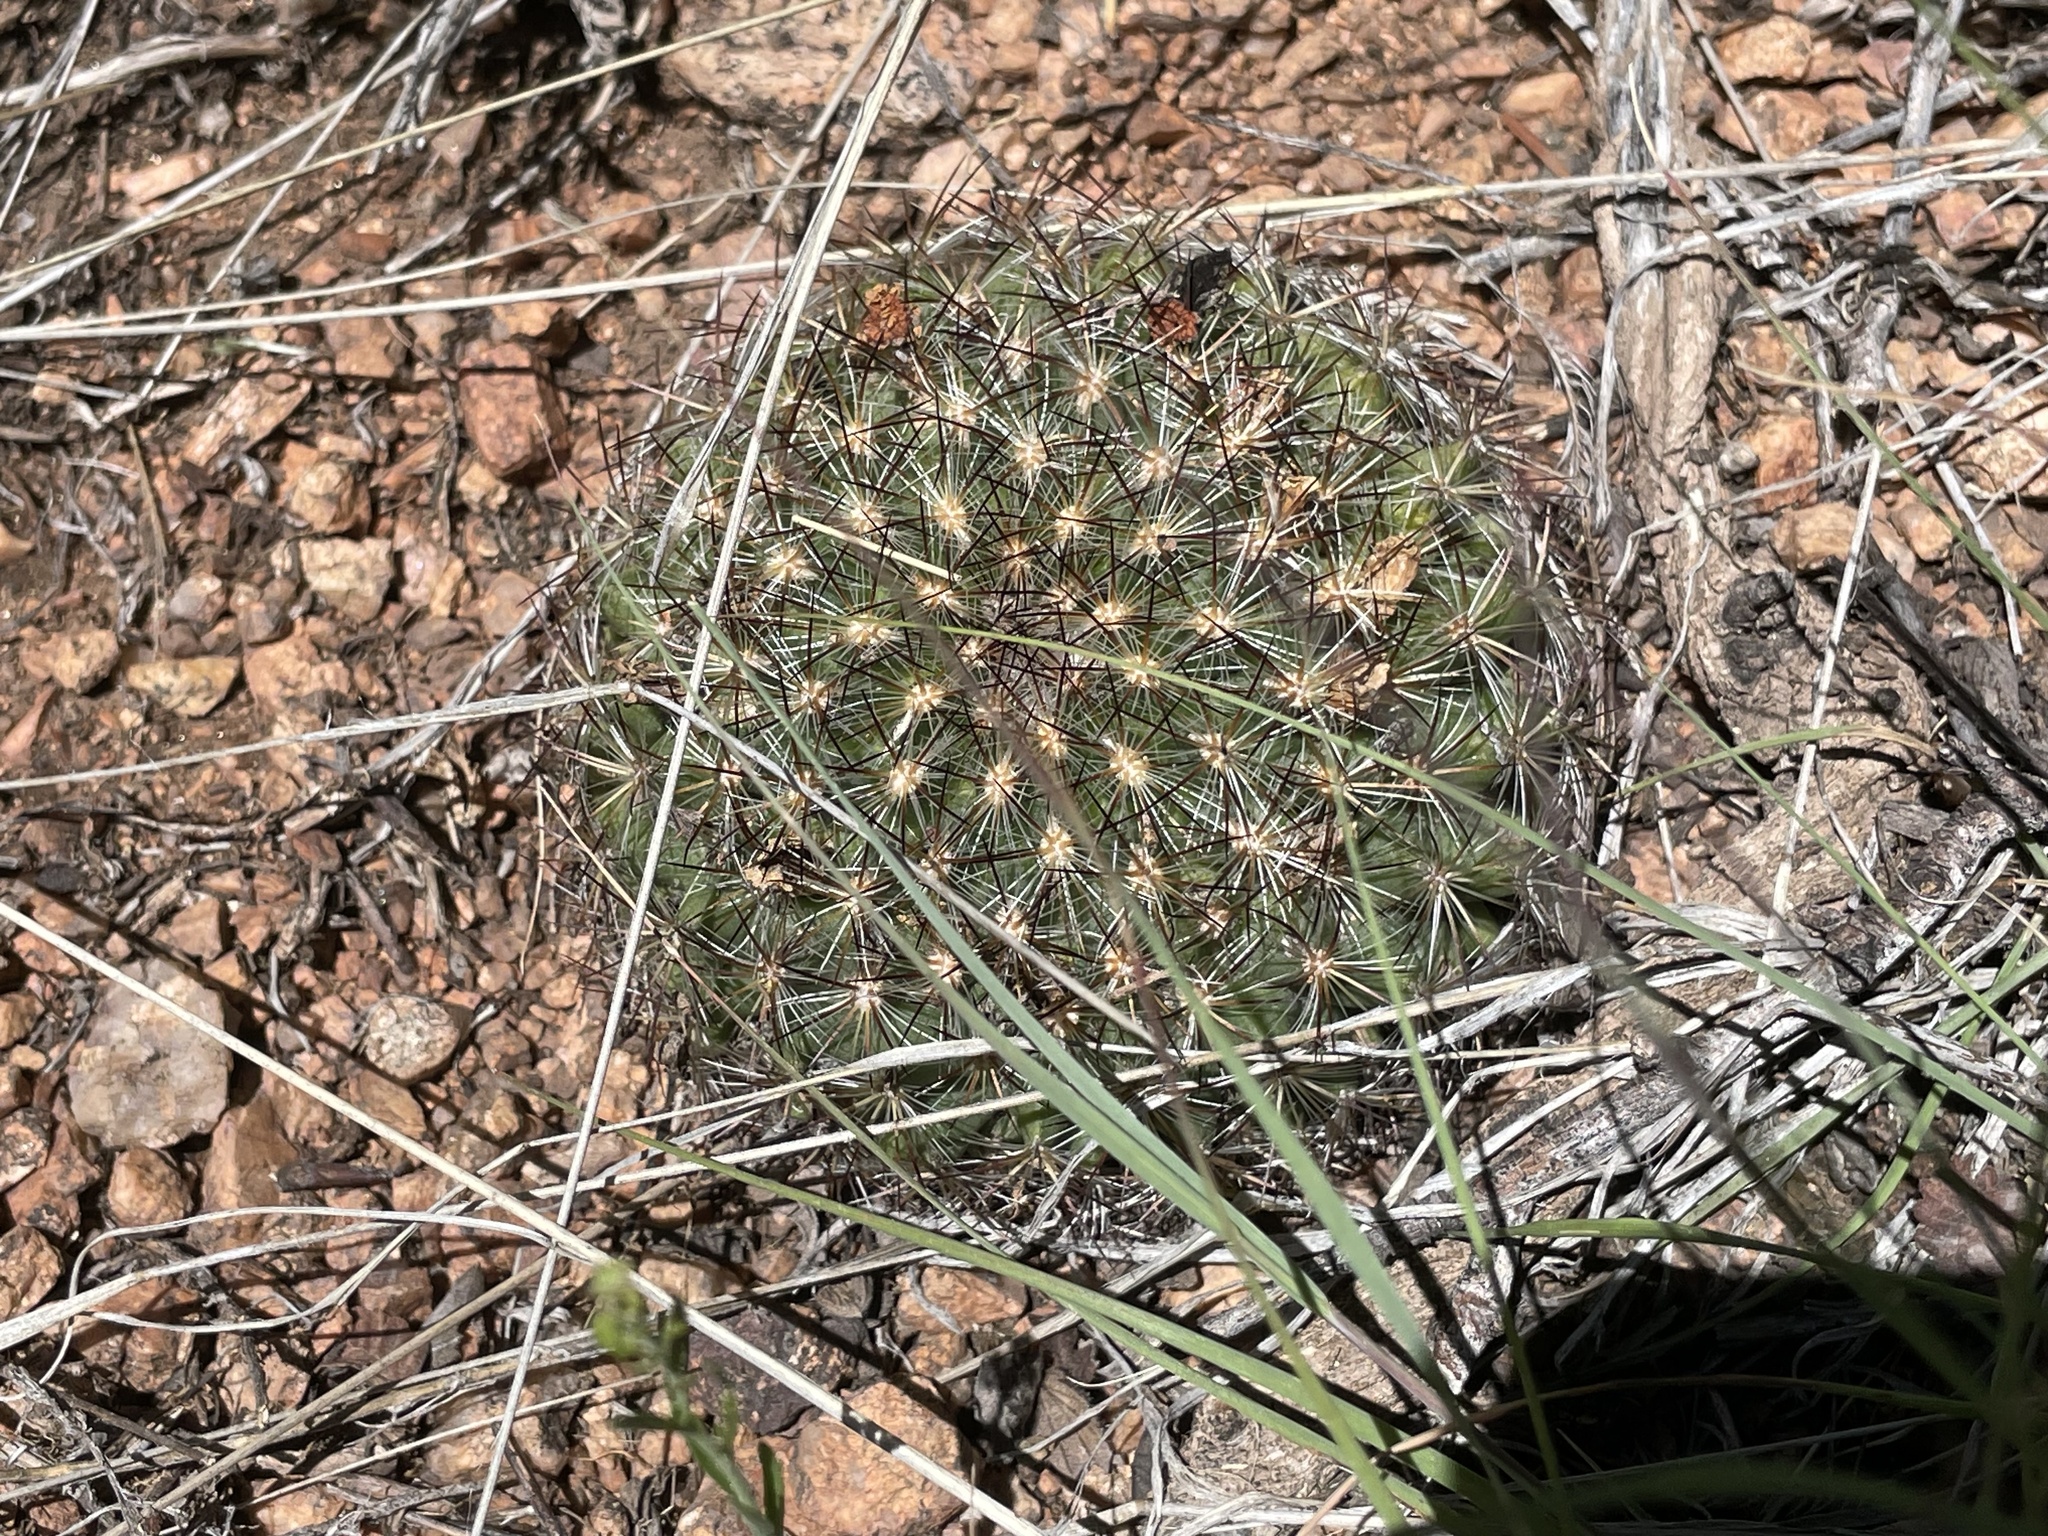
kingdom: Plantae
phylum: Tracheophyta
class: Magnoliopsida
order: Caryophyllales
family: Cactaceae
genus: Pediocactus
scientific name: Pediocactus simpsonii
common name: Simpson's hedgehog cactus
